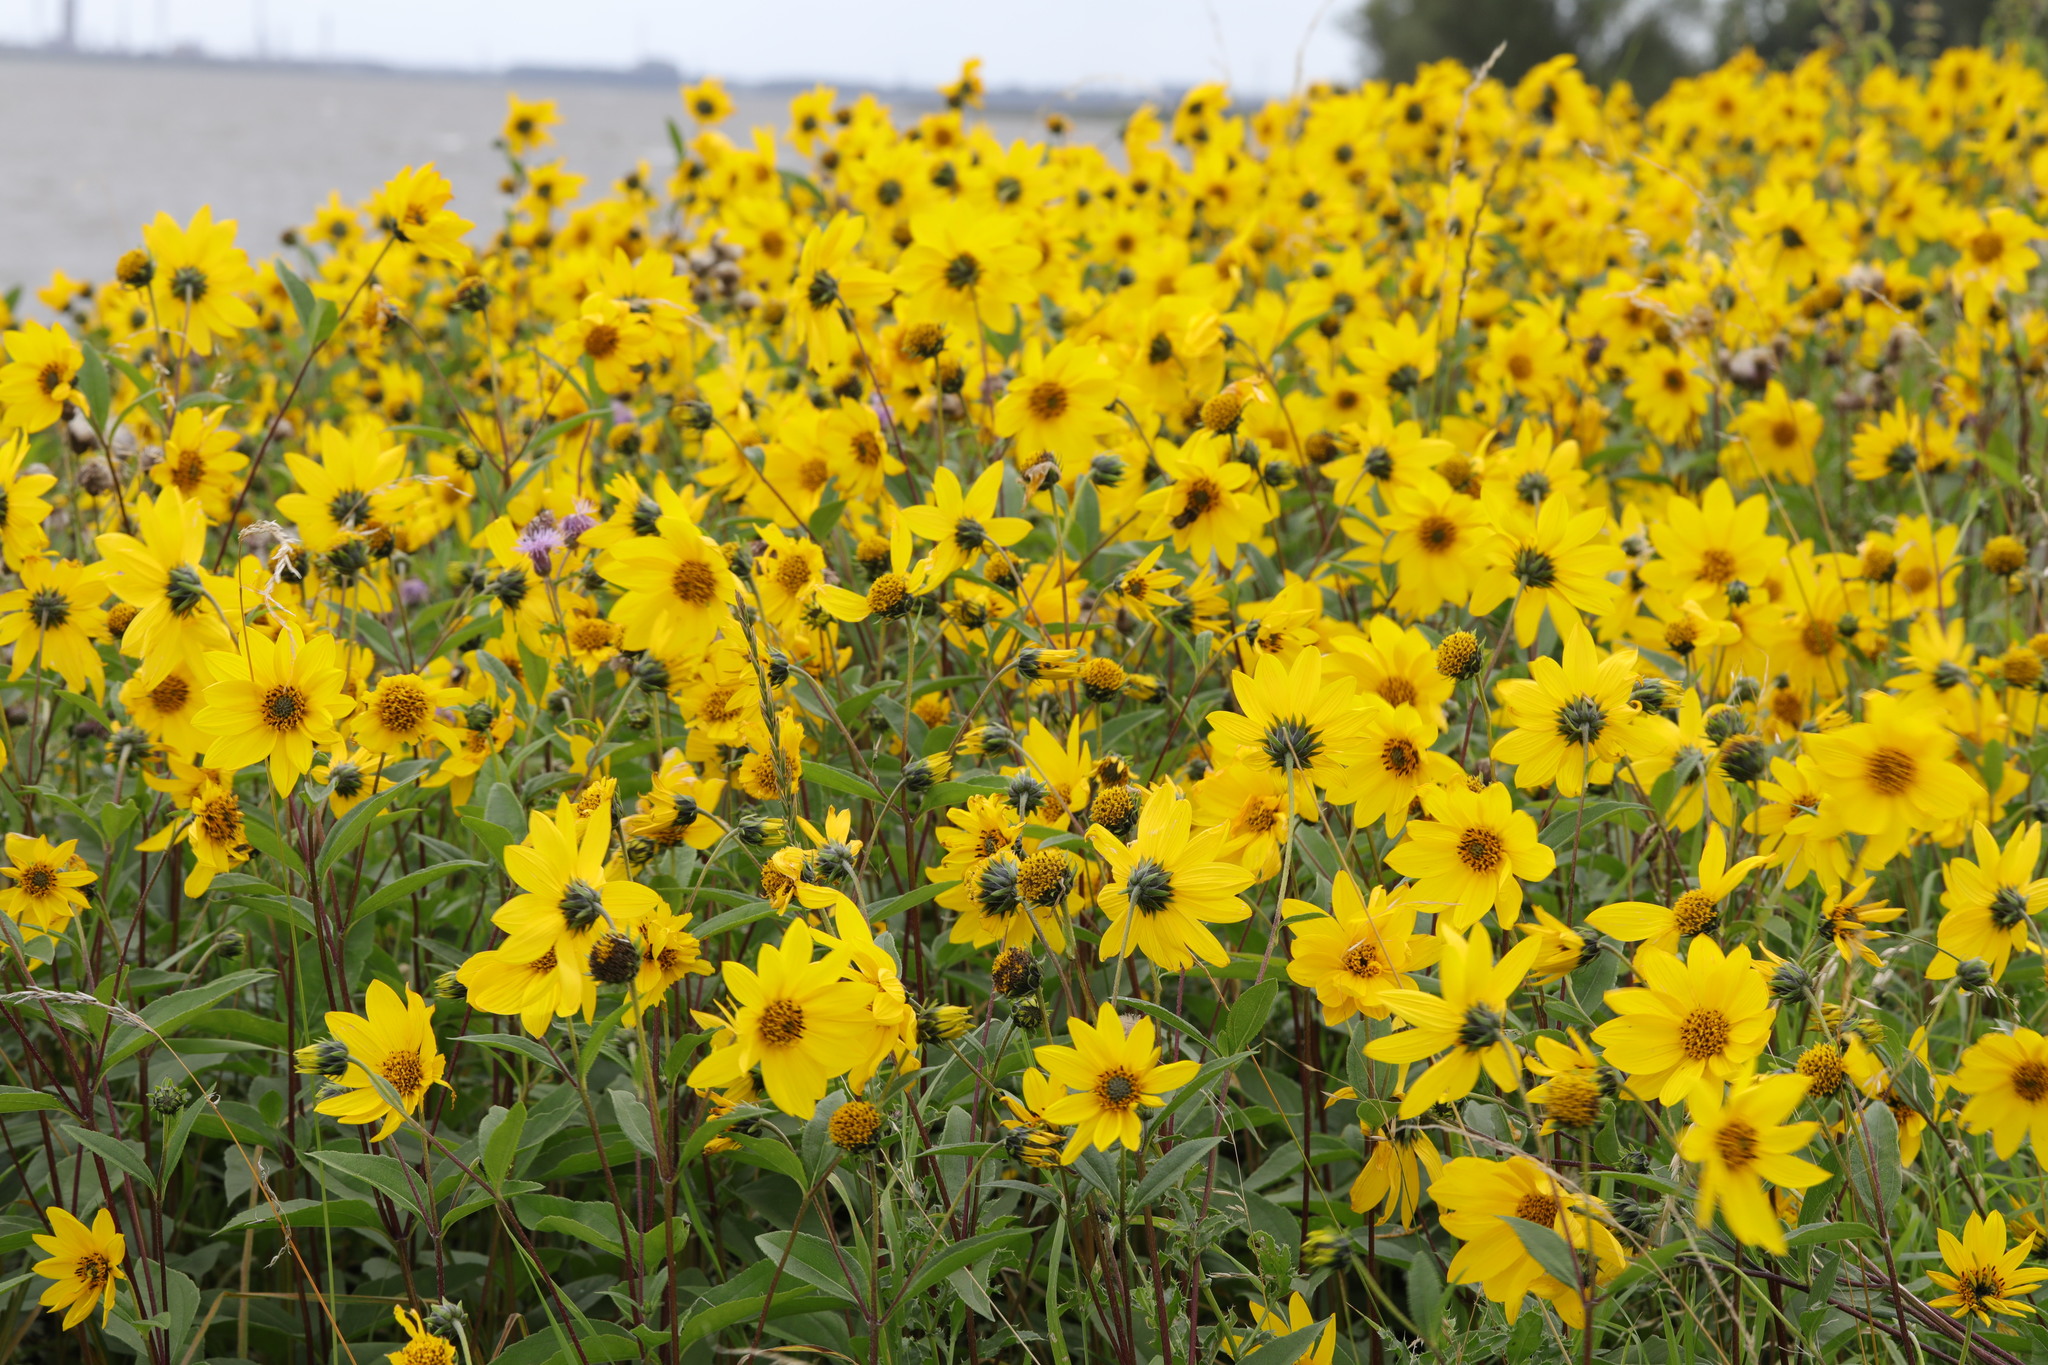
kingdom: Plantae
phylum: Tracheophyta
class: Magnoliopsida
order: Asterales
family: Asteraceae
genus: Helianthus
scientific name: Helianthus tuberosus
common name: Jerusalem artichoke
